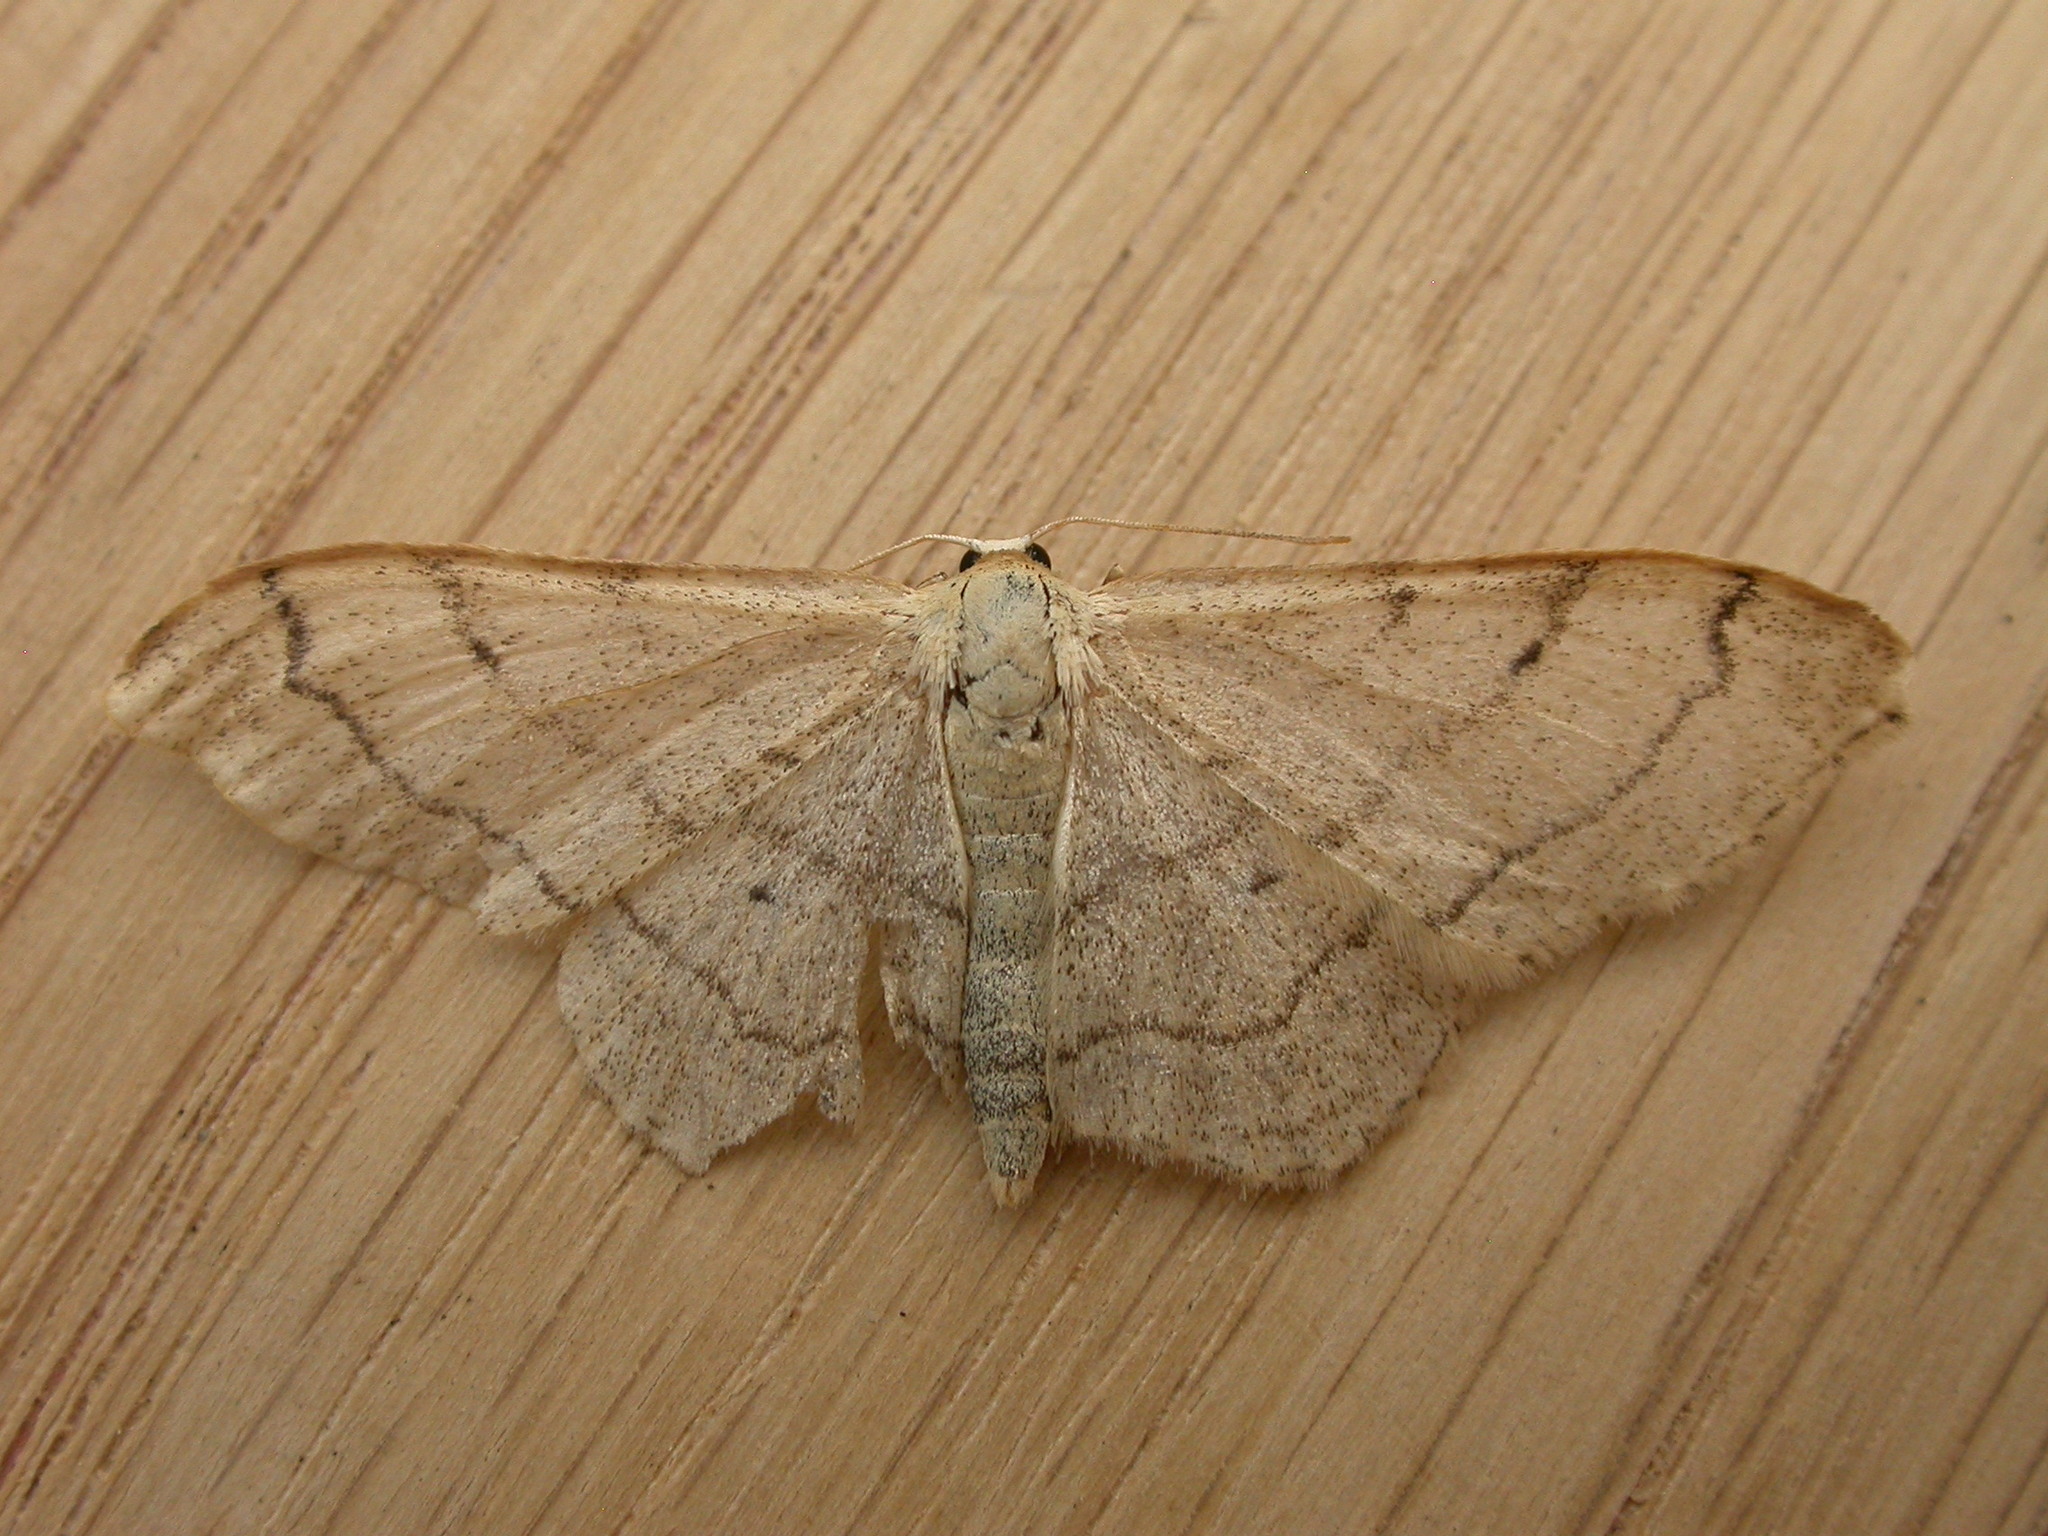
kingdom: Animalia
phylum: Arthropoda
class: Insecta
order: Lepidoptera
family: Geometridae
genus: Idaea
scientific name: Idaea aversata
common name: Riband wave
